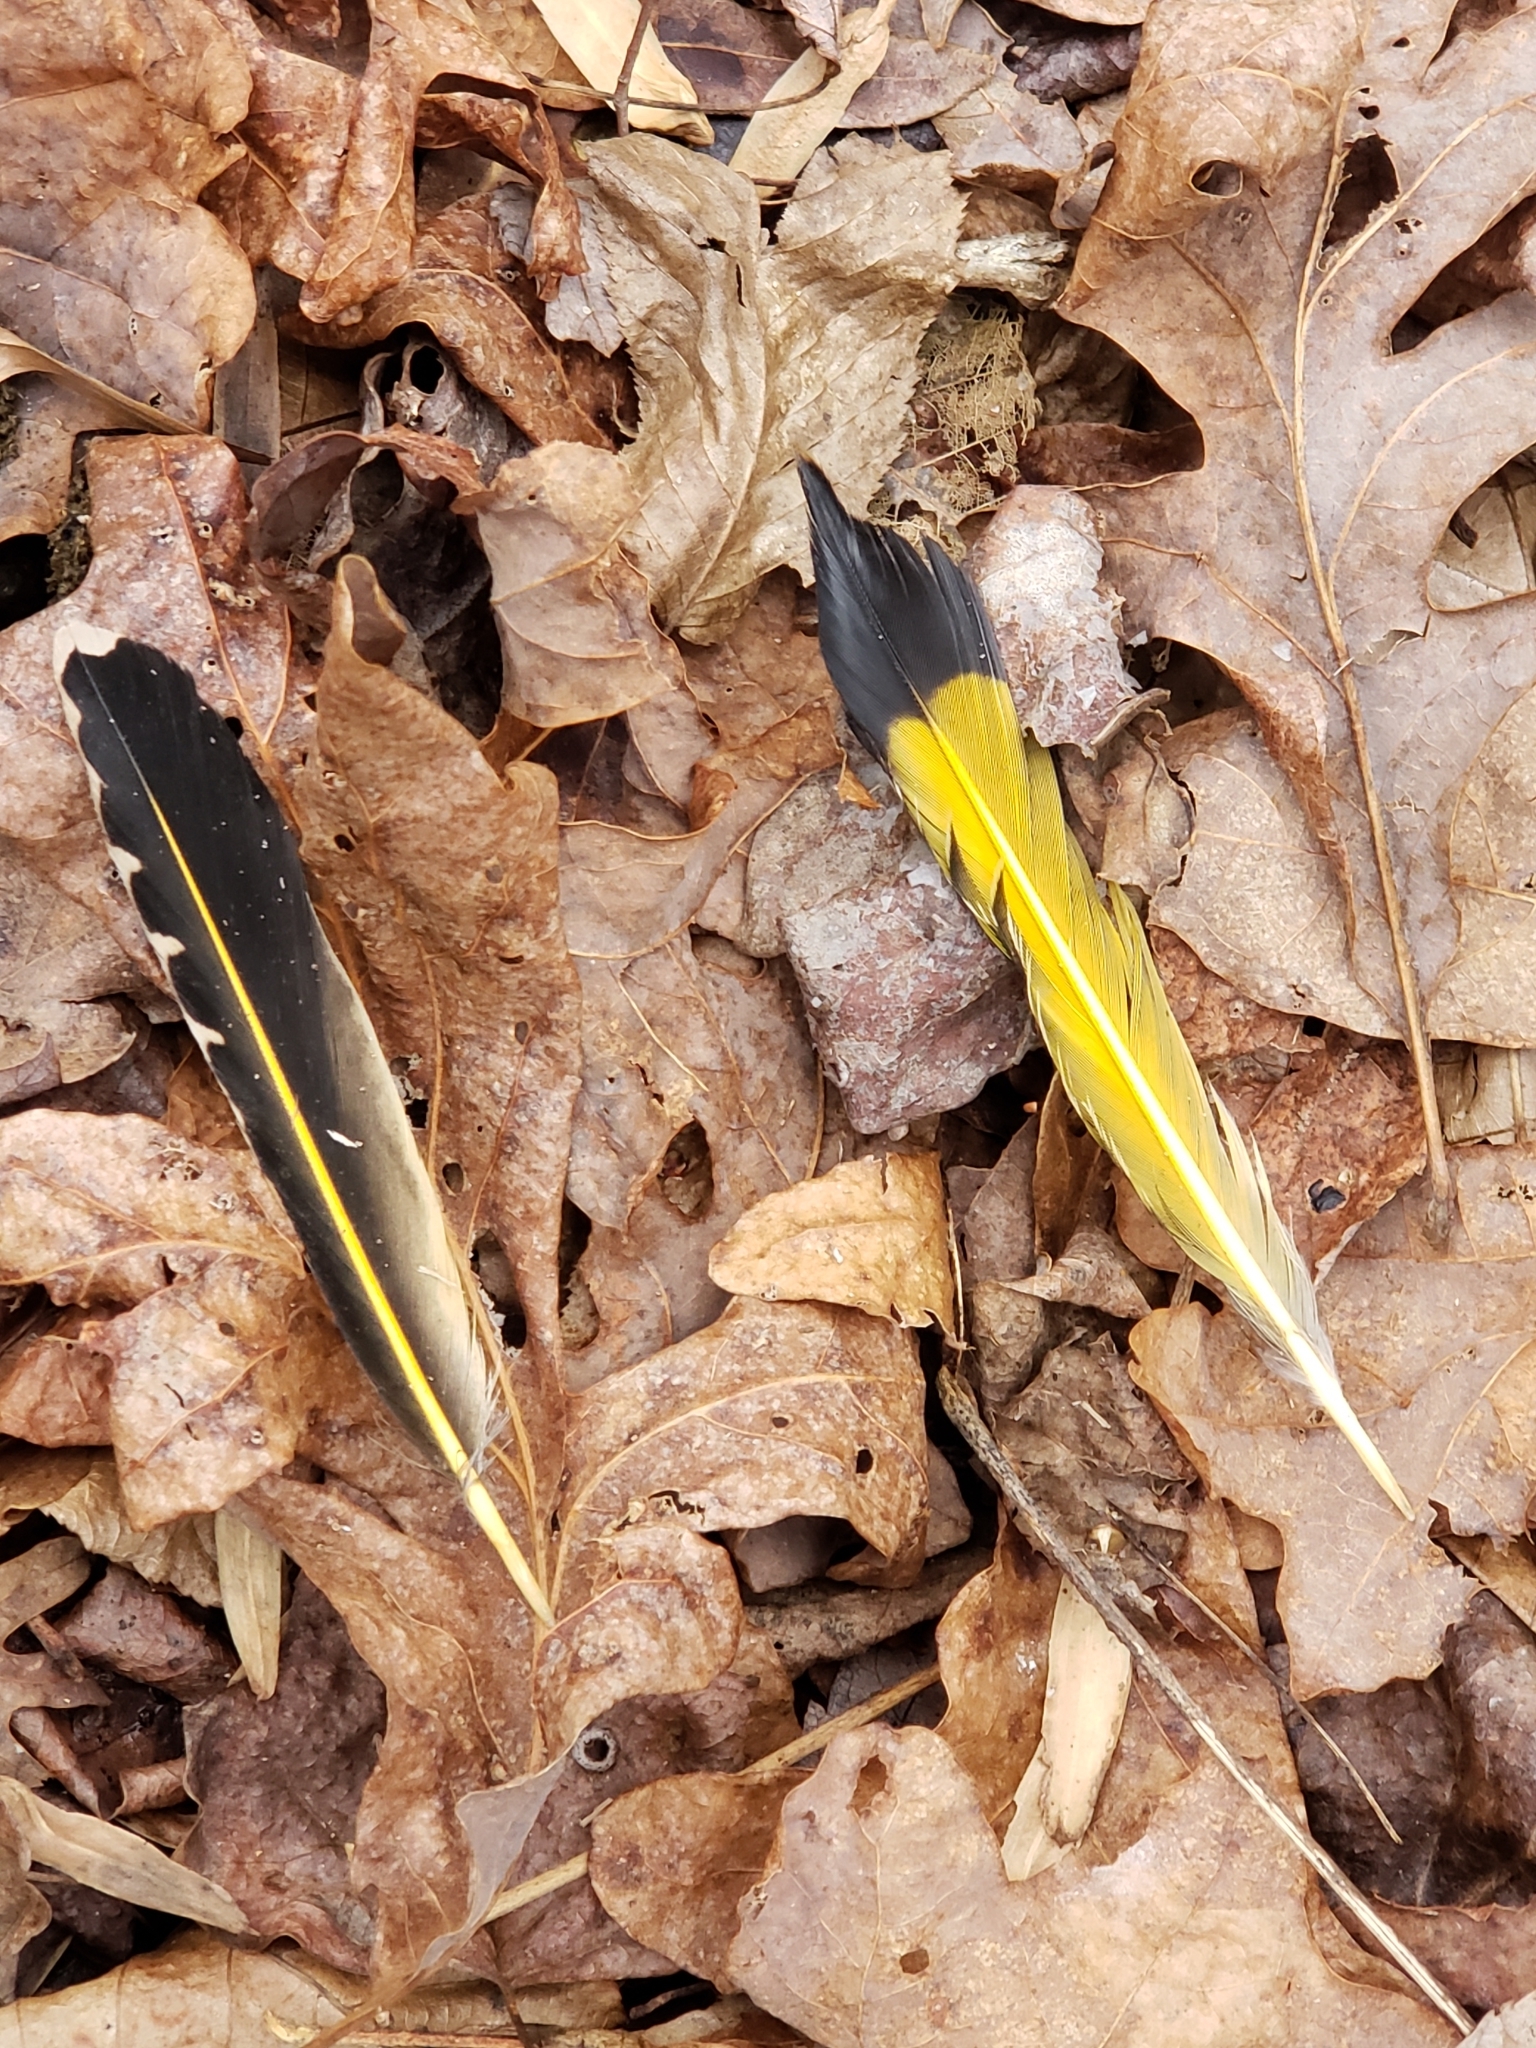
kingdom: Animalia
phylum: Chordata
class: Aves
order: Piciformes
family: Picidae
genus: Colaptes
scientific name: Colaptes auratus
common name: Northern flicker
